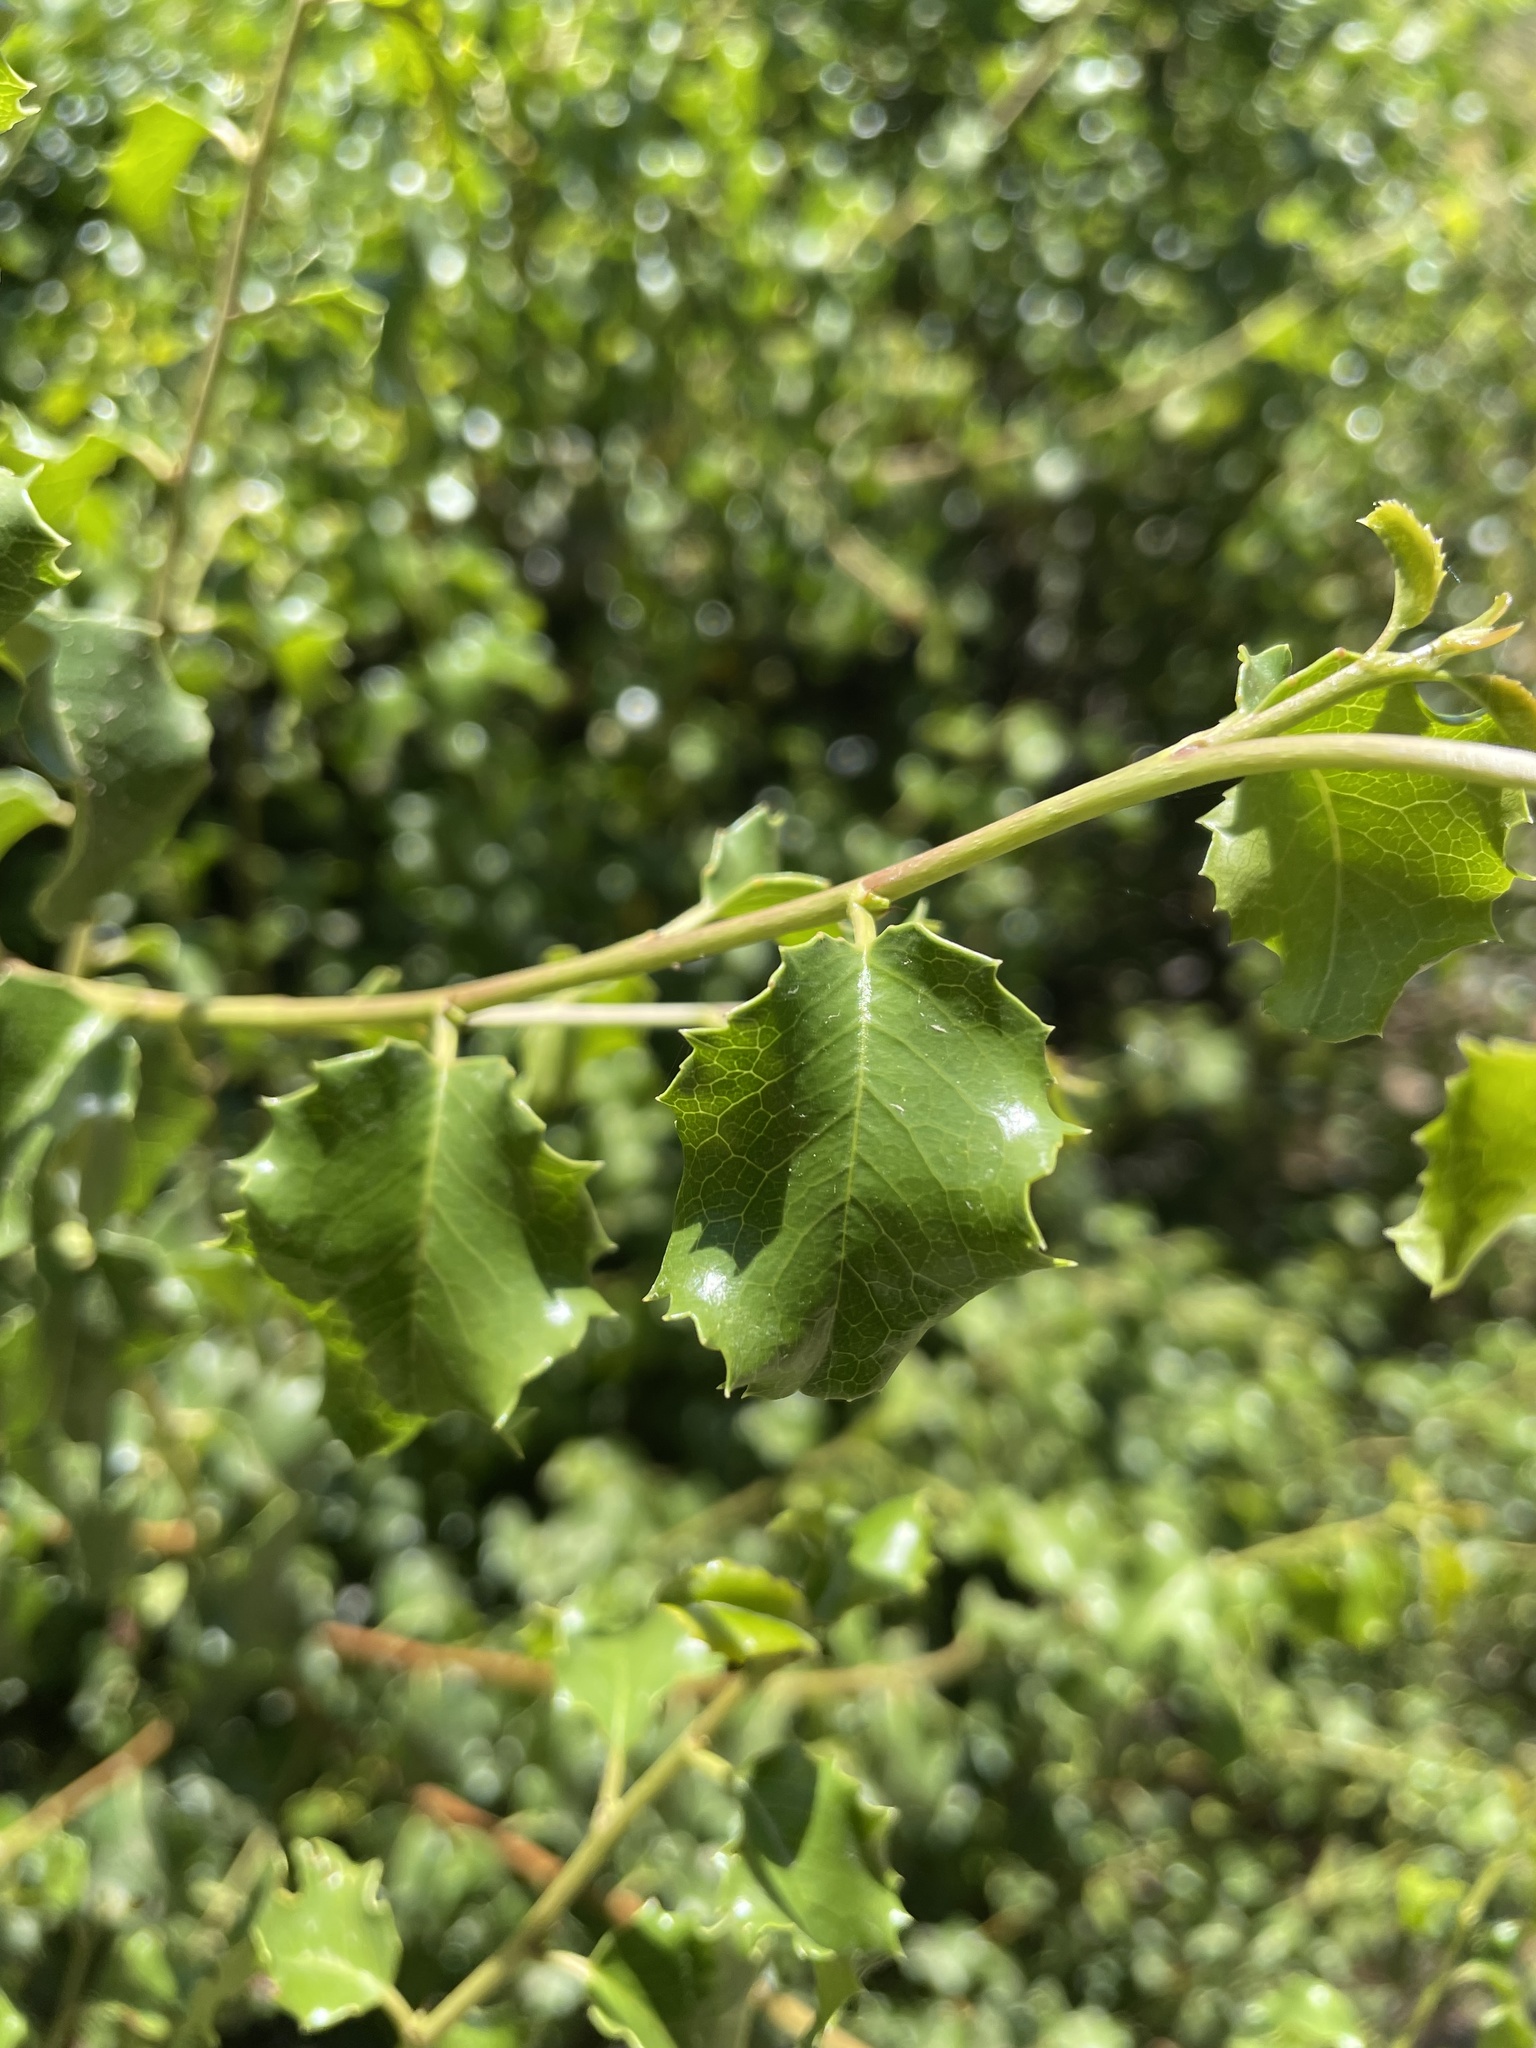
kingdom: Plantae
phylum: Tracheophyta
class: Magnoliopsida
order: Rosales
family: Rosaceae
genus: Prunus
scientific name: Prunus ilicifolia
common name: Hollyleaf cherry
